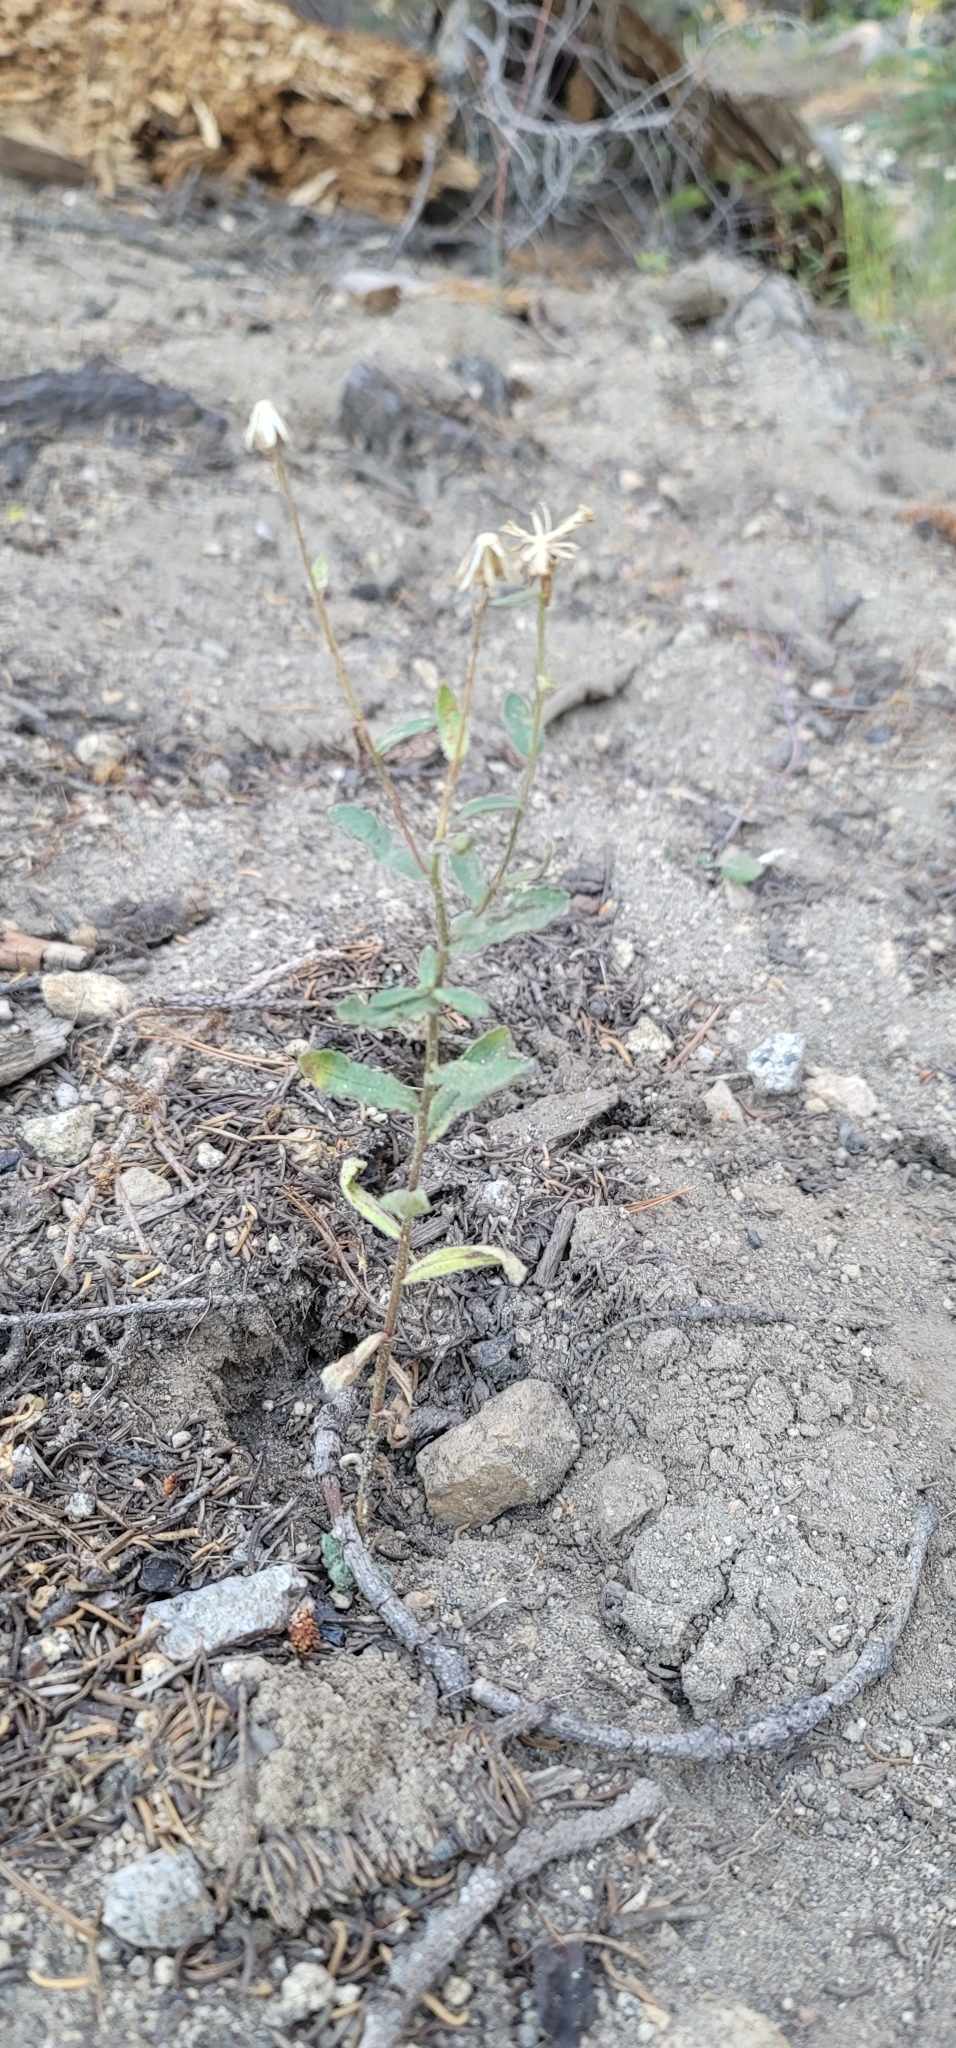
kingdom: Plantae
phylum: Tracheophyta
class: Magnoliopsida
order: Asterales
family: Asteraceae
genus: Hulsea
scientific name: Hulsea brevifolia
